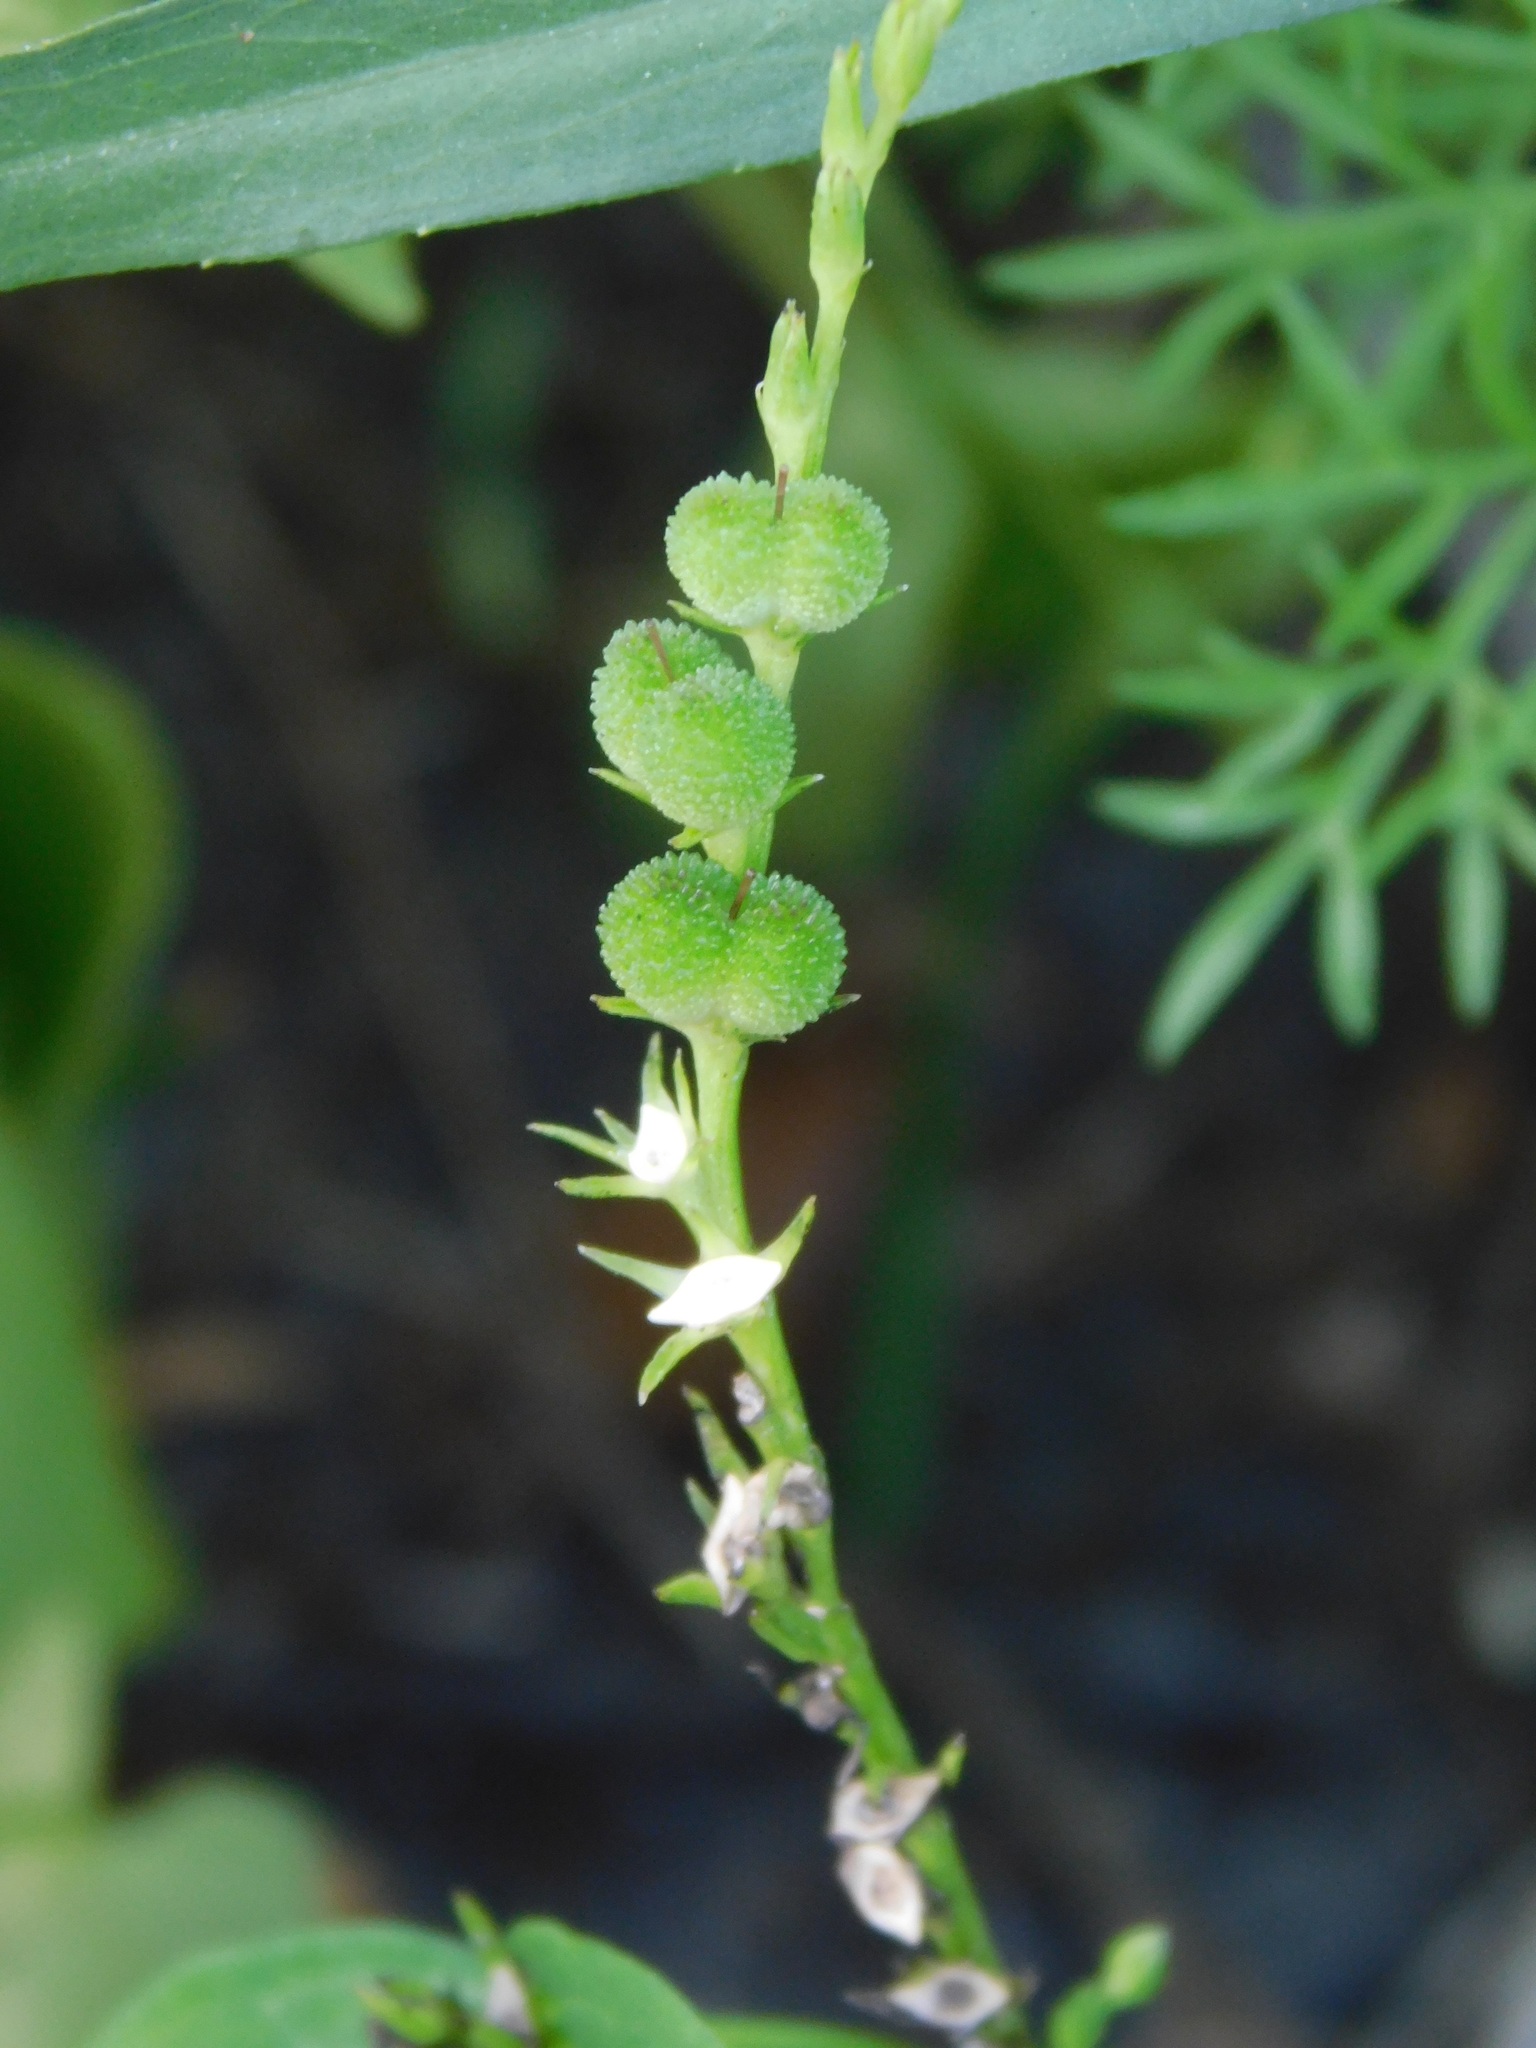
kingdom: Plantae
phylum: Tracheophyta
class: Magnoliopsida
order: Gentianales
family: Loganiaceae
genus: Spigelia
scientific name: Spigelia anthelmia
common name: West indian-pink
